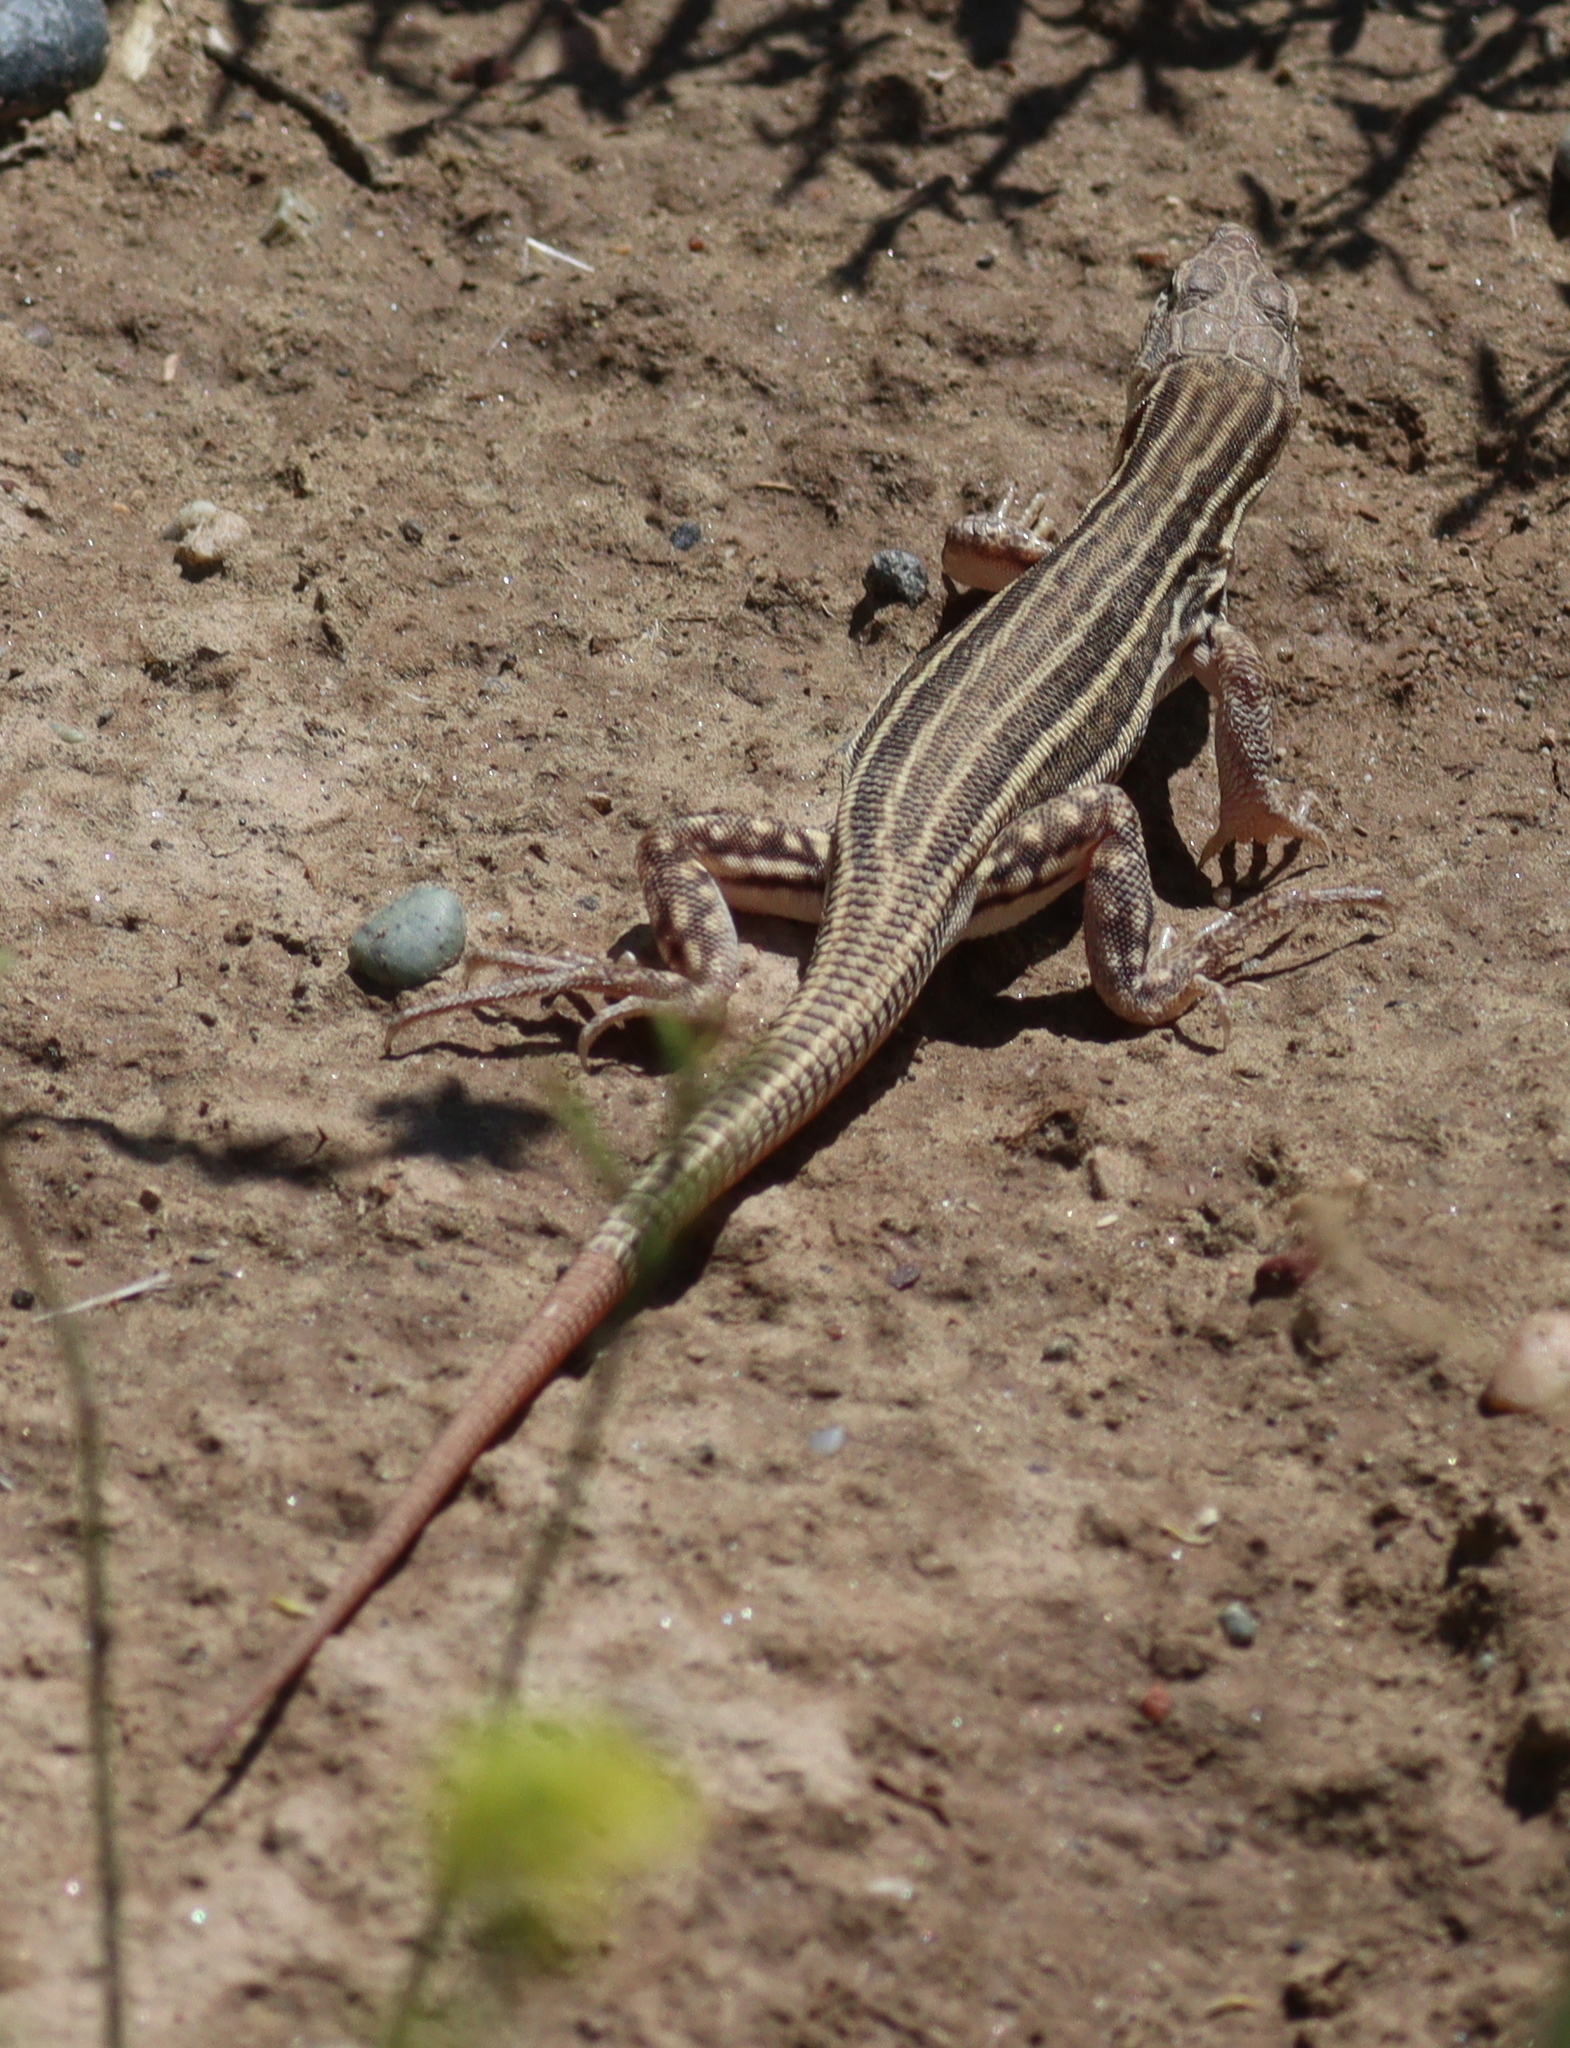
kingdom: Animalia
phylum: Chordata
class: Squamata
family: Lacertidae
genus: Acanthodactylus
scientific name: Acanthodactylus boskianus
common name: Bosc’s fringe-toed lizard
